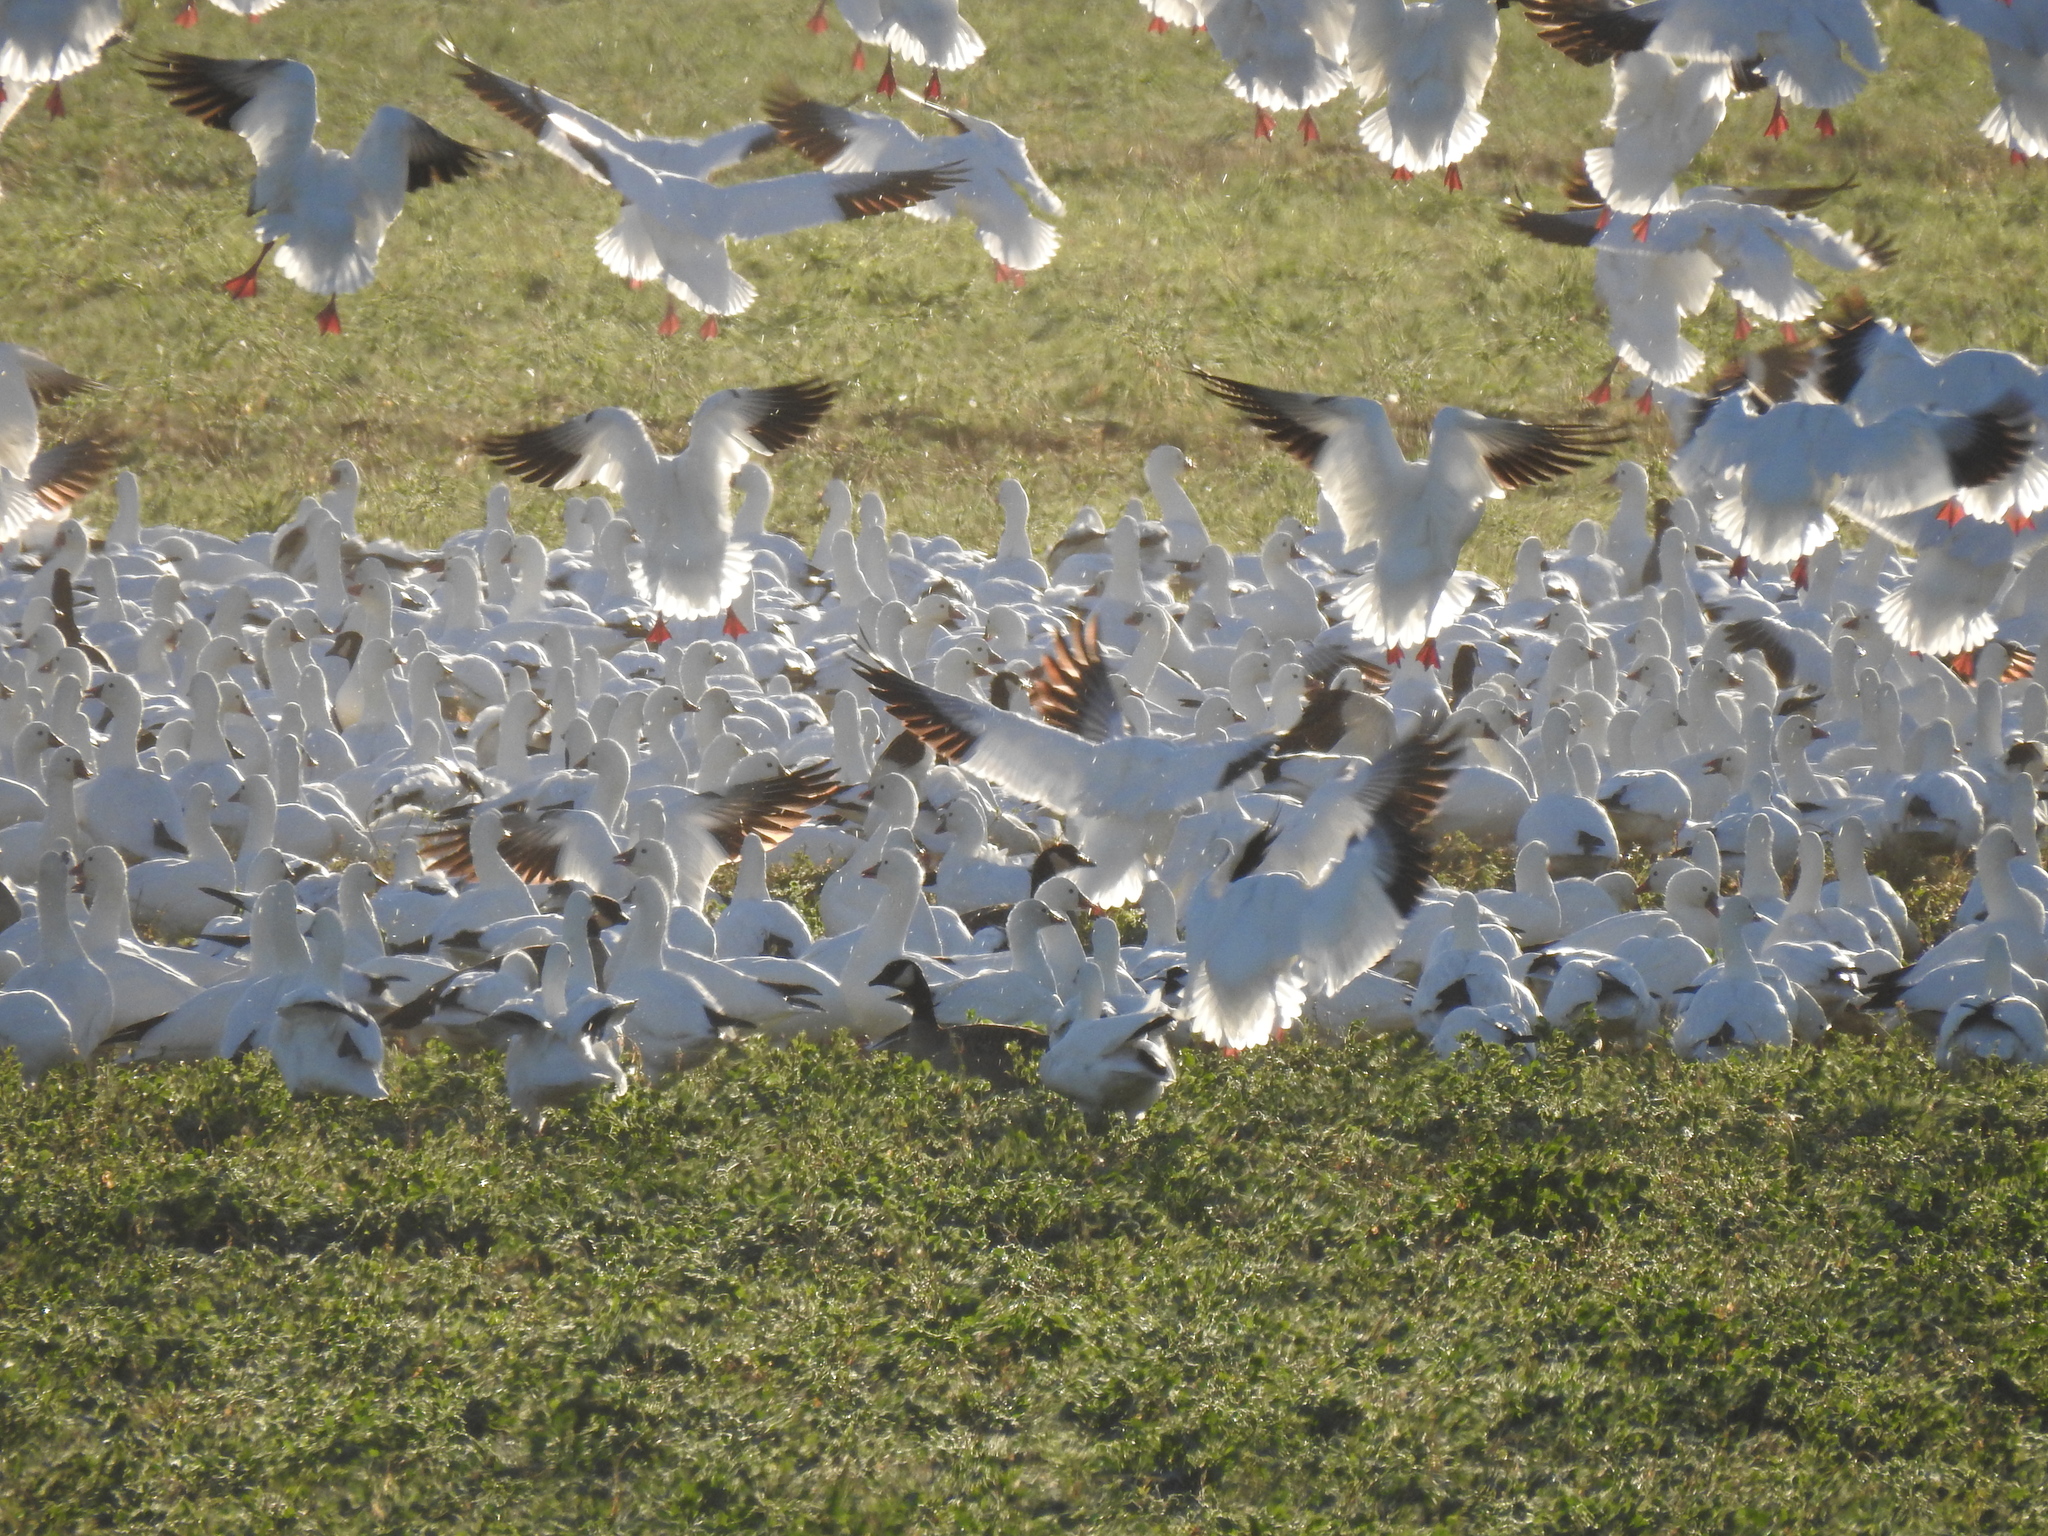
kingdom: Animalia
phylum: Chordata
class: Aves
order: Anseriformes
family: Anatidae
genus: Anser
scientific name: Anser caerulescens
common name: Snow goose
